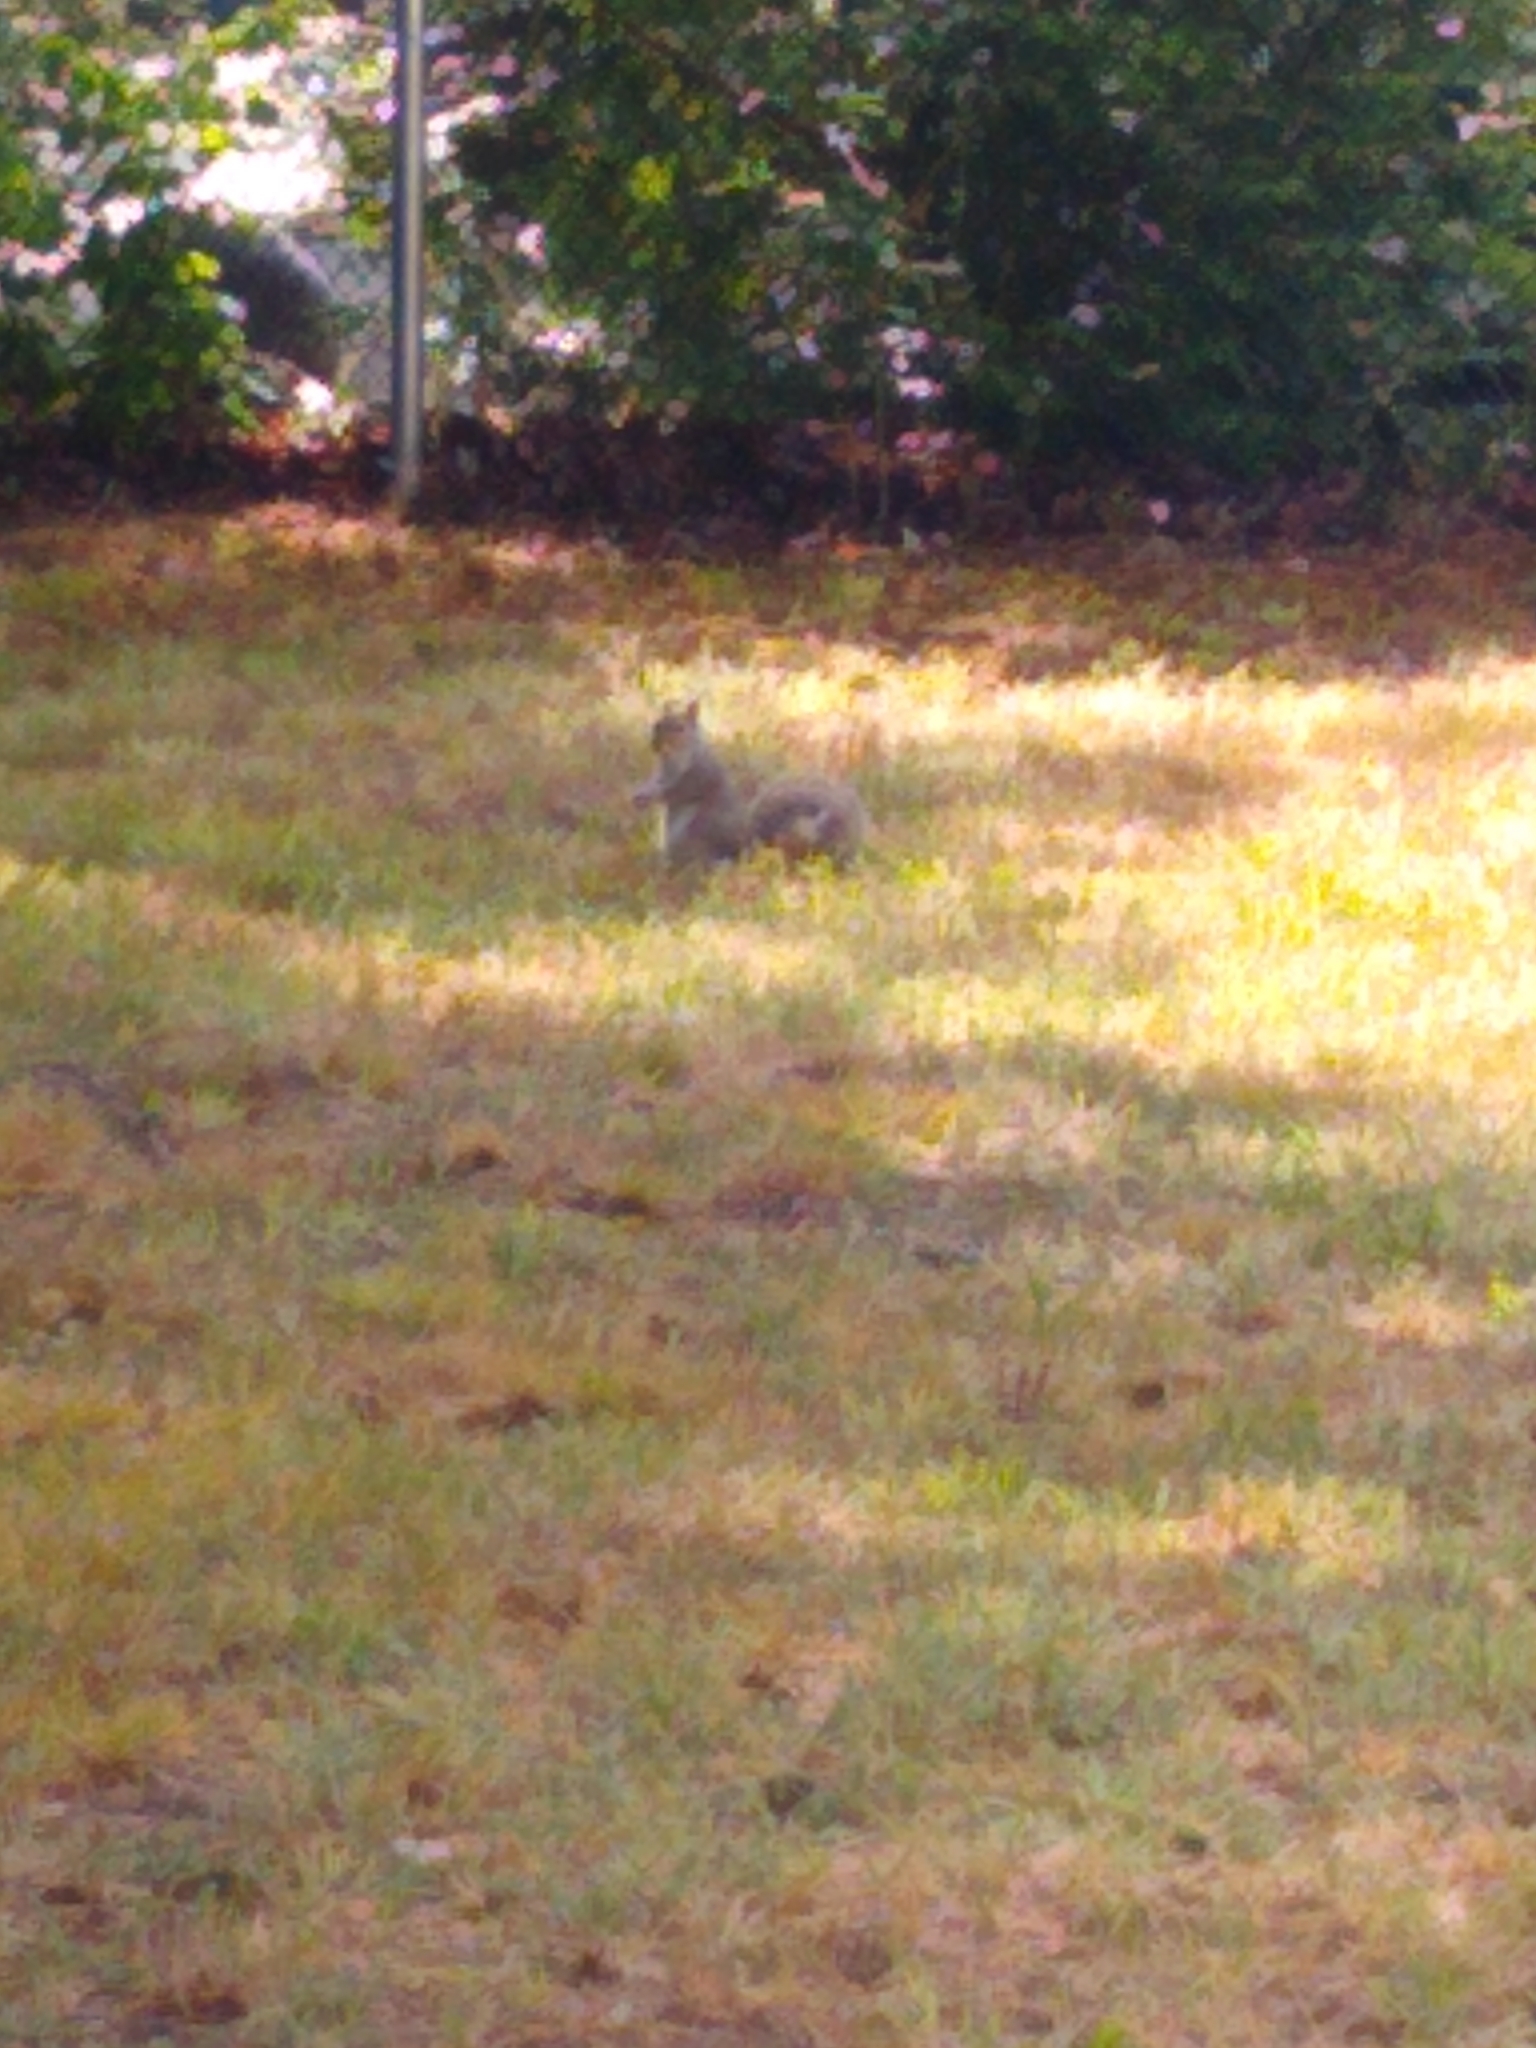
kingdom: Animalia
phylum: Chordata
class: Mammalia
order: Rodentia
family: Sciuridae
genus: Sciurus
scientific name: Sciurus carolinensis
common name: Eastern gray squirrel
